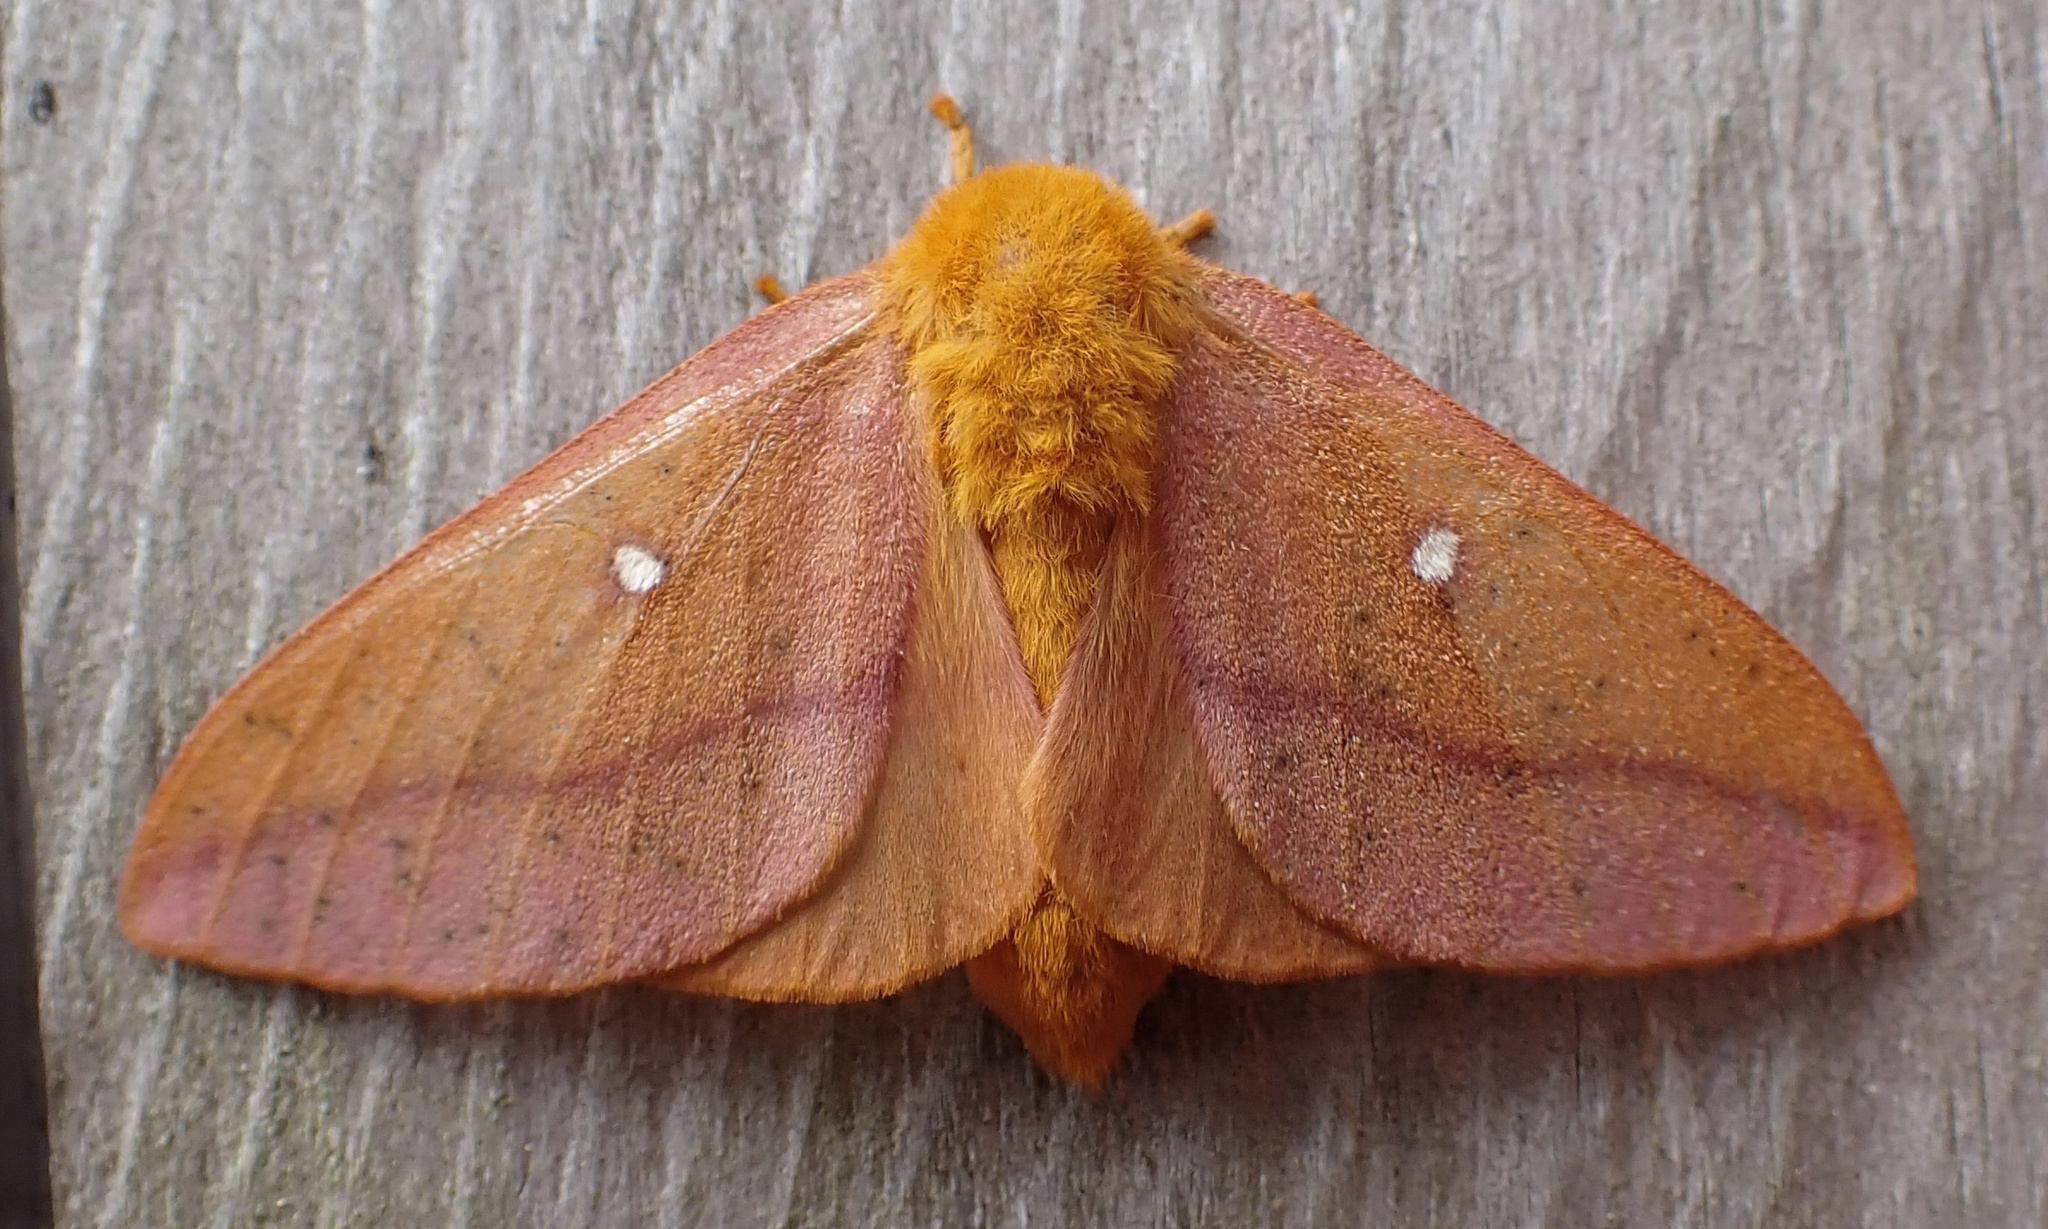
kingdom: Animalia
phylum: Arthropoda
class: Insecta
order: Lepidoptera
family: Saturniidae
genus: Anisota
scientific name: Anisota senatoria
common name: Orange-striped oakworm moth
